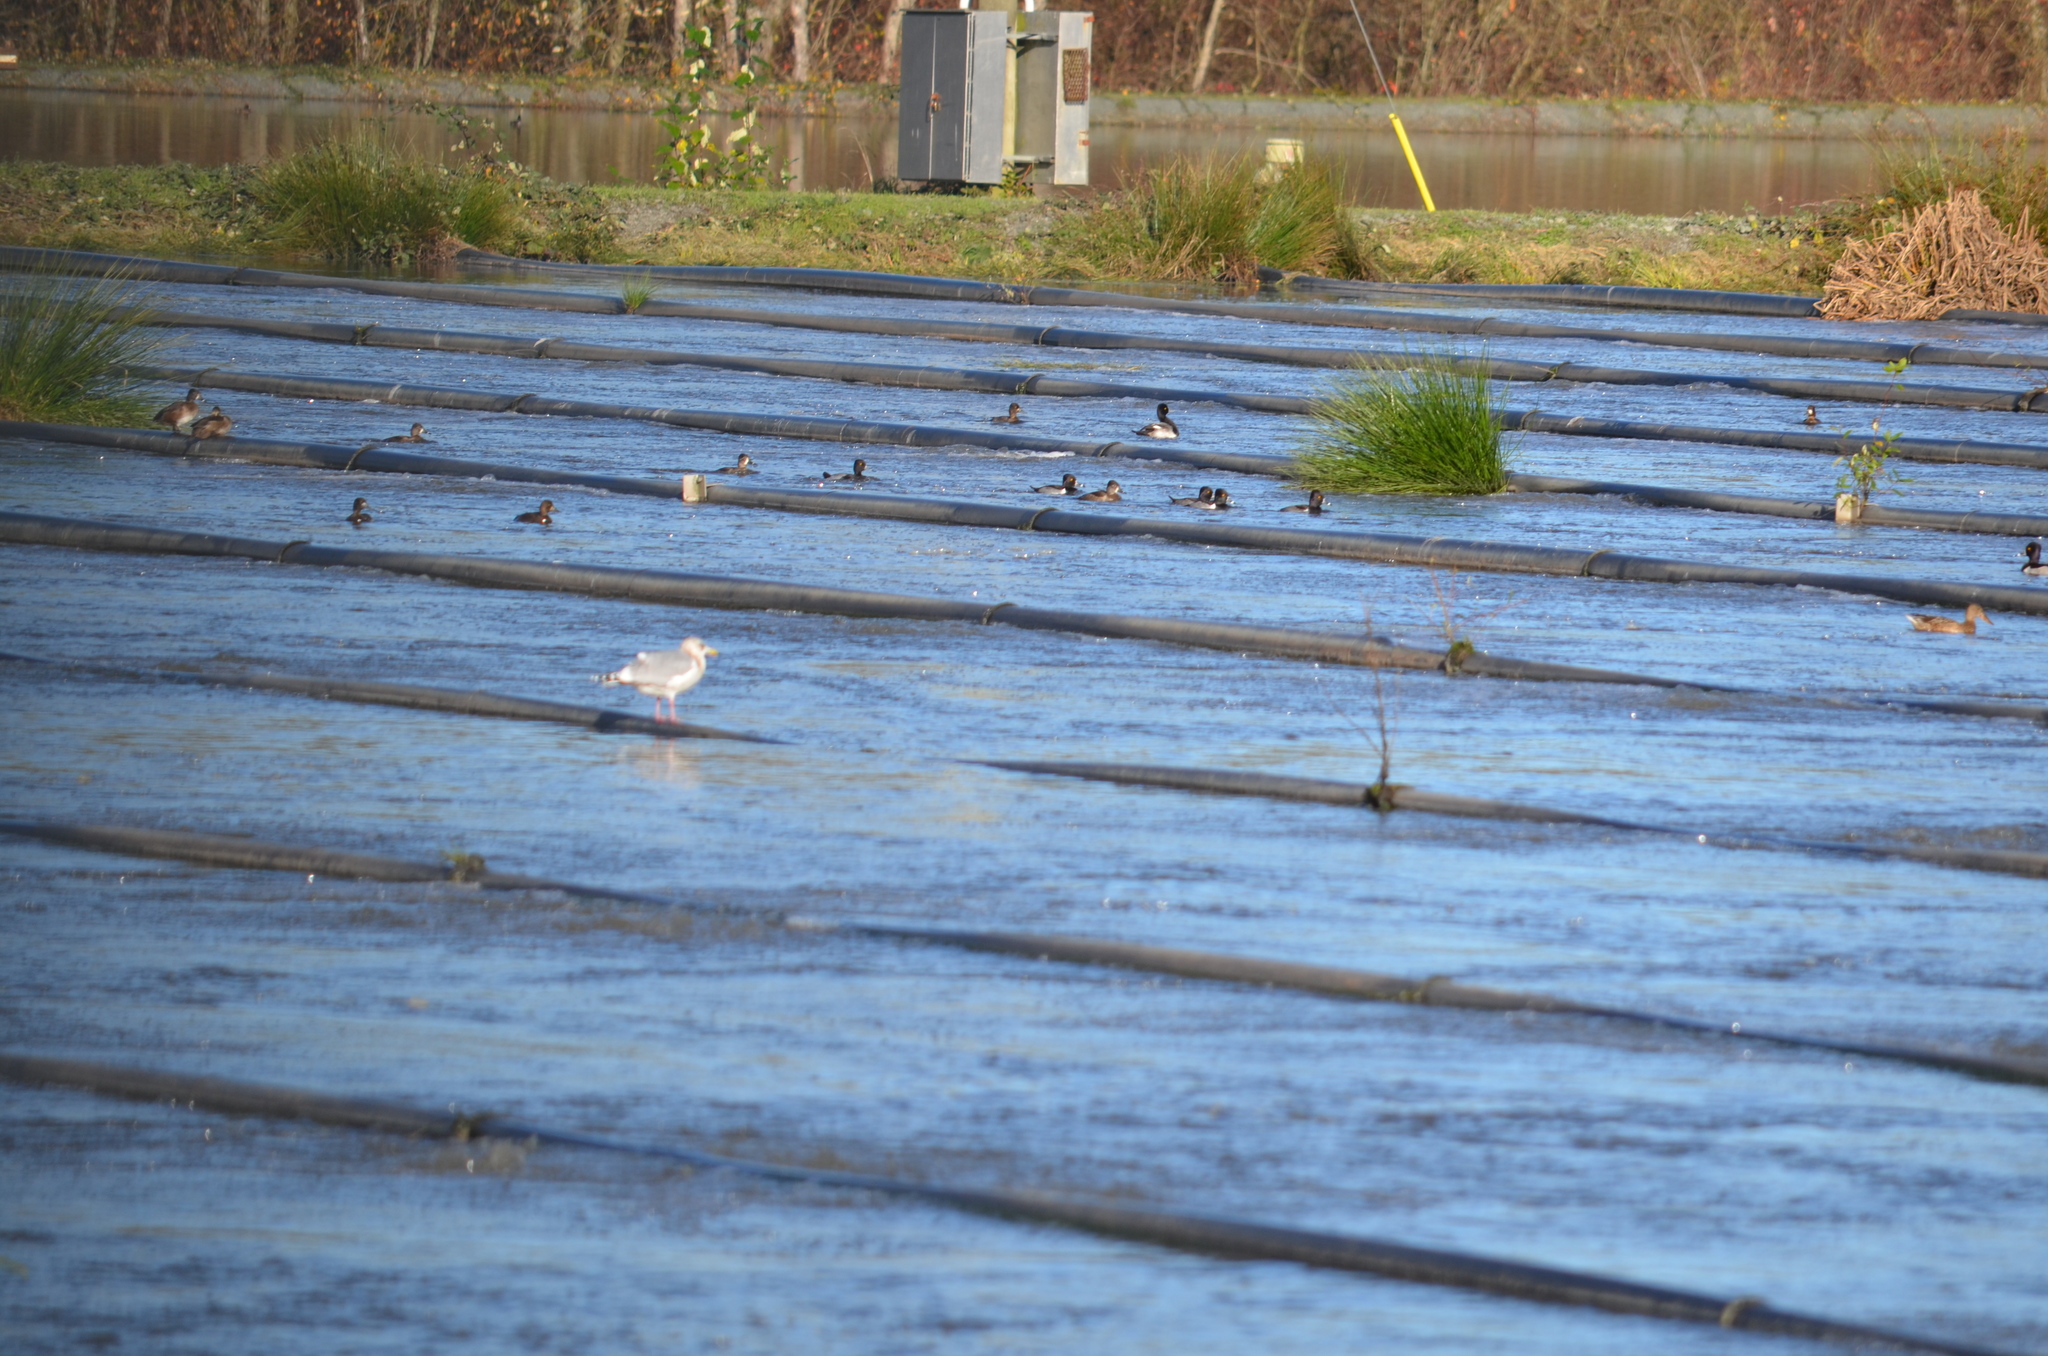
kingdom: Animalia
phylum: Chordata
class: Aves
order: Anseriformes
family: Anatidae
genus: Aythya
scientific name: Aythya affinis
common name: Lesser scaup
